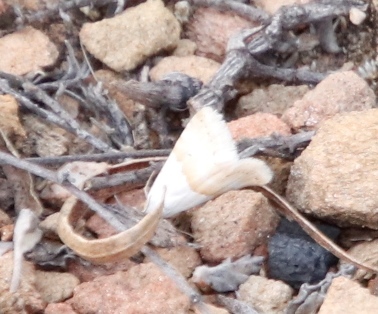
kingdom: Animalia
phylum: Arthropoda
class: Insecta
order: Lepidoptera
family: Noctuidae
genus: Eublemma
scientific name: Eublemma caffrorum
